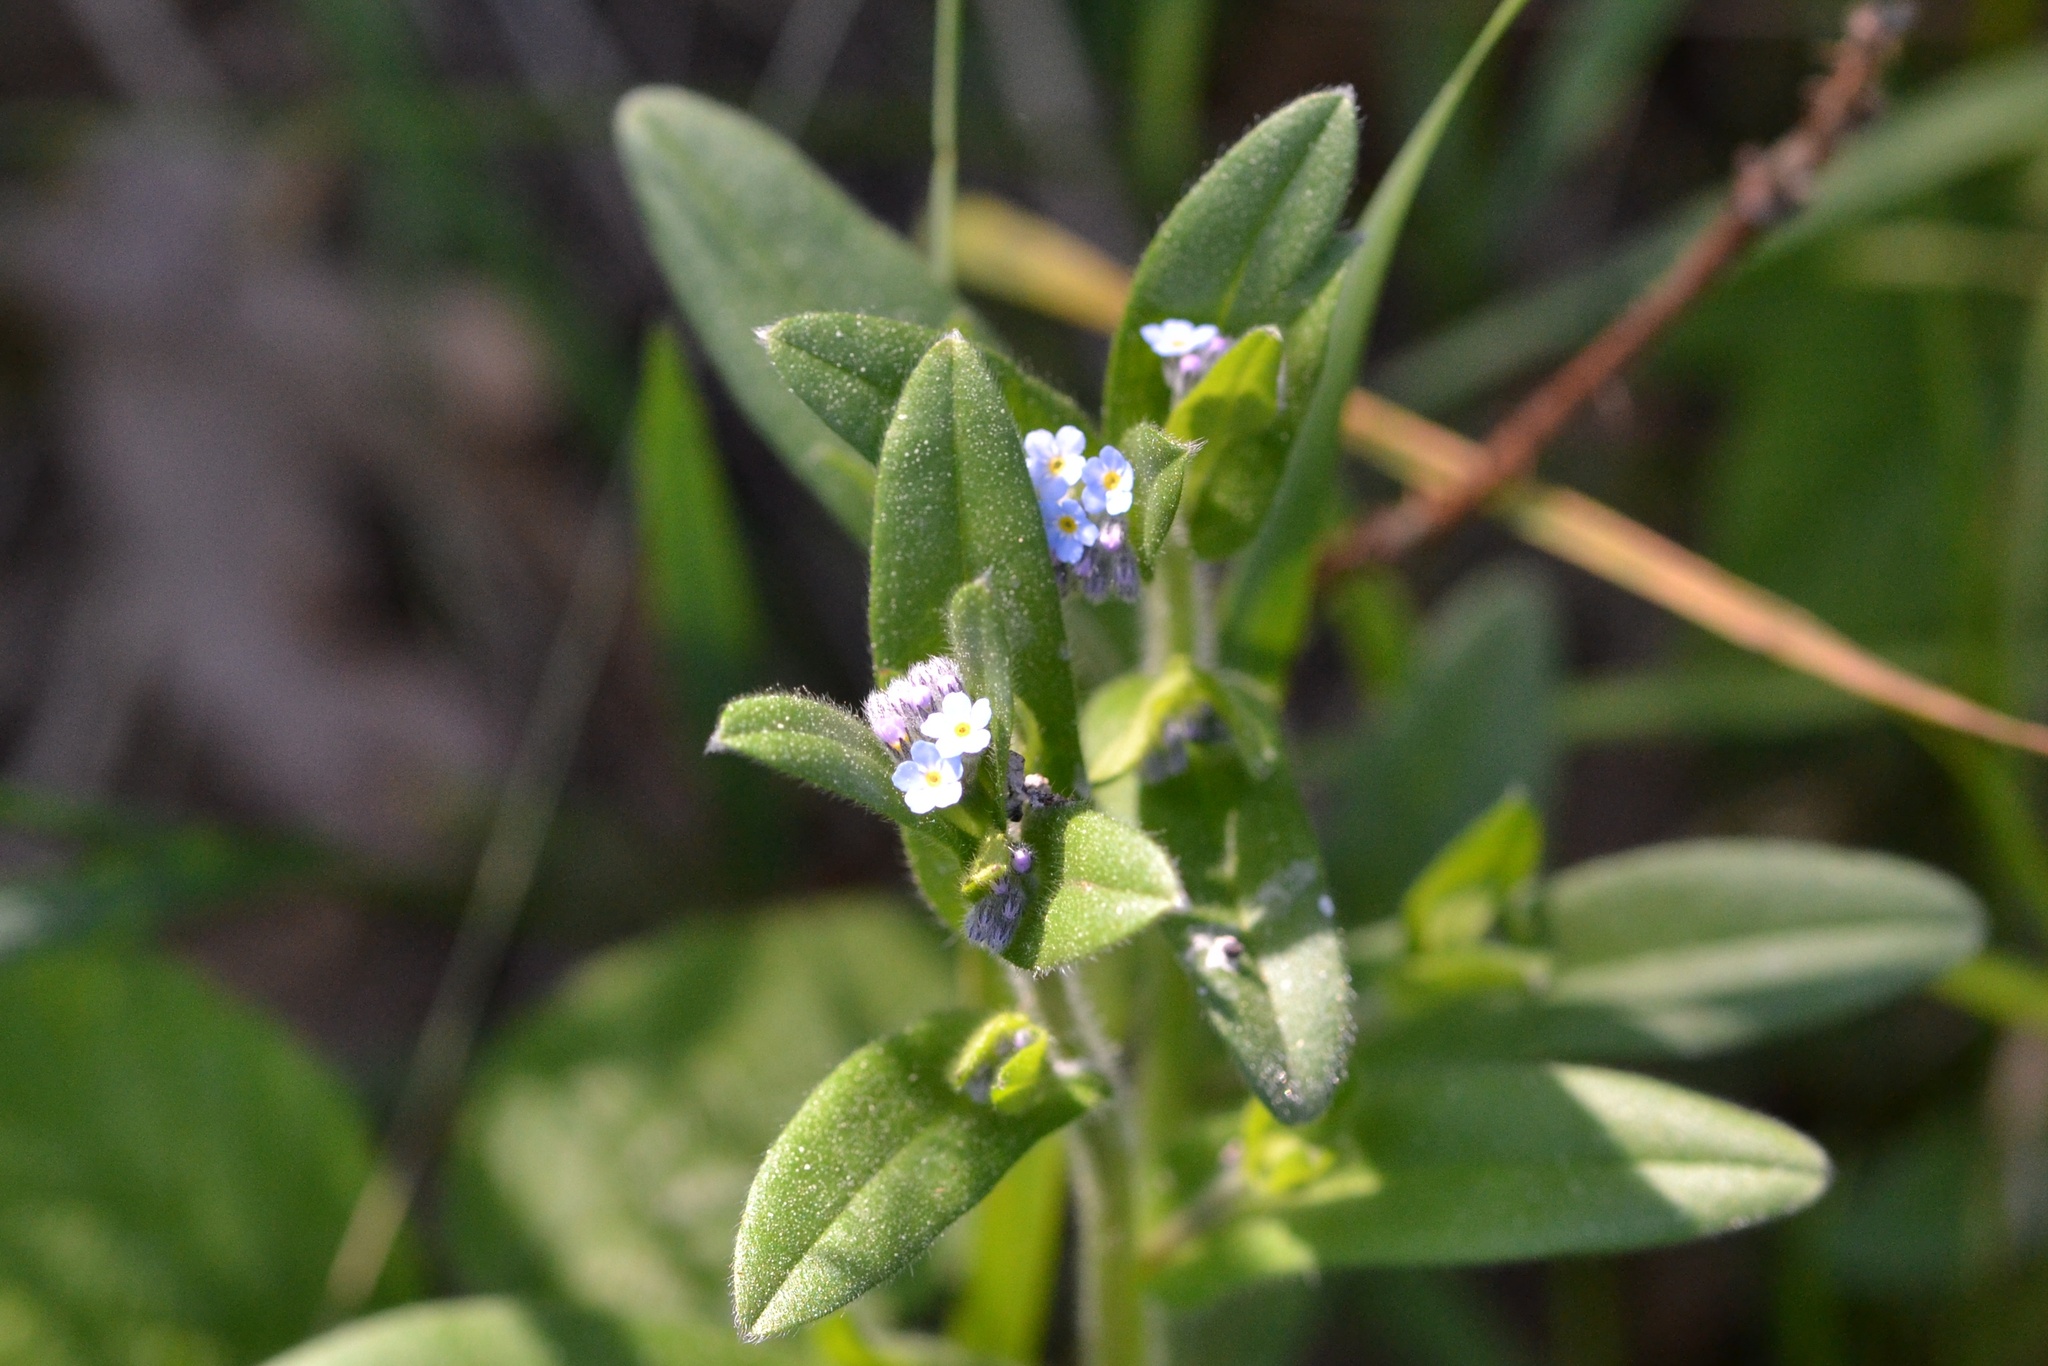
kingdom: Plantae
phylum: Tracheophyta
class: Magnoliopsida
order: Boraginales
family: Boraginaceae
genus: Myosotis
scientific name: Myosotis arvensis
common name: Field forget-me-not
